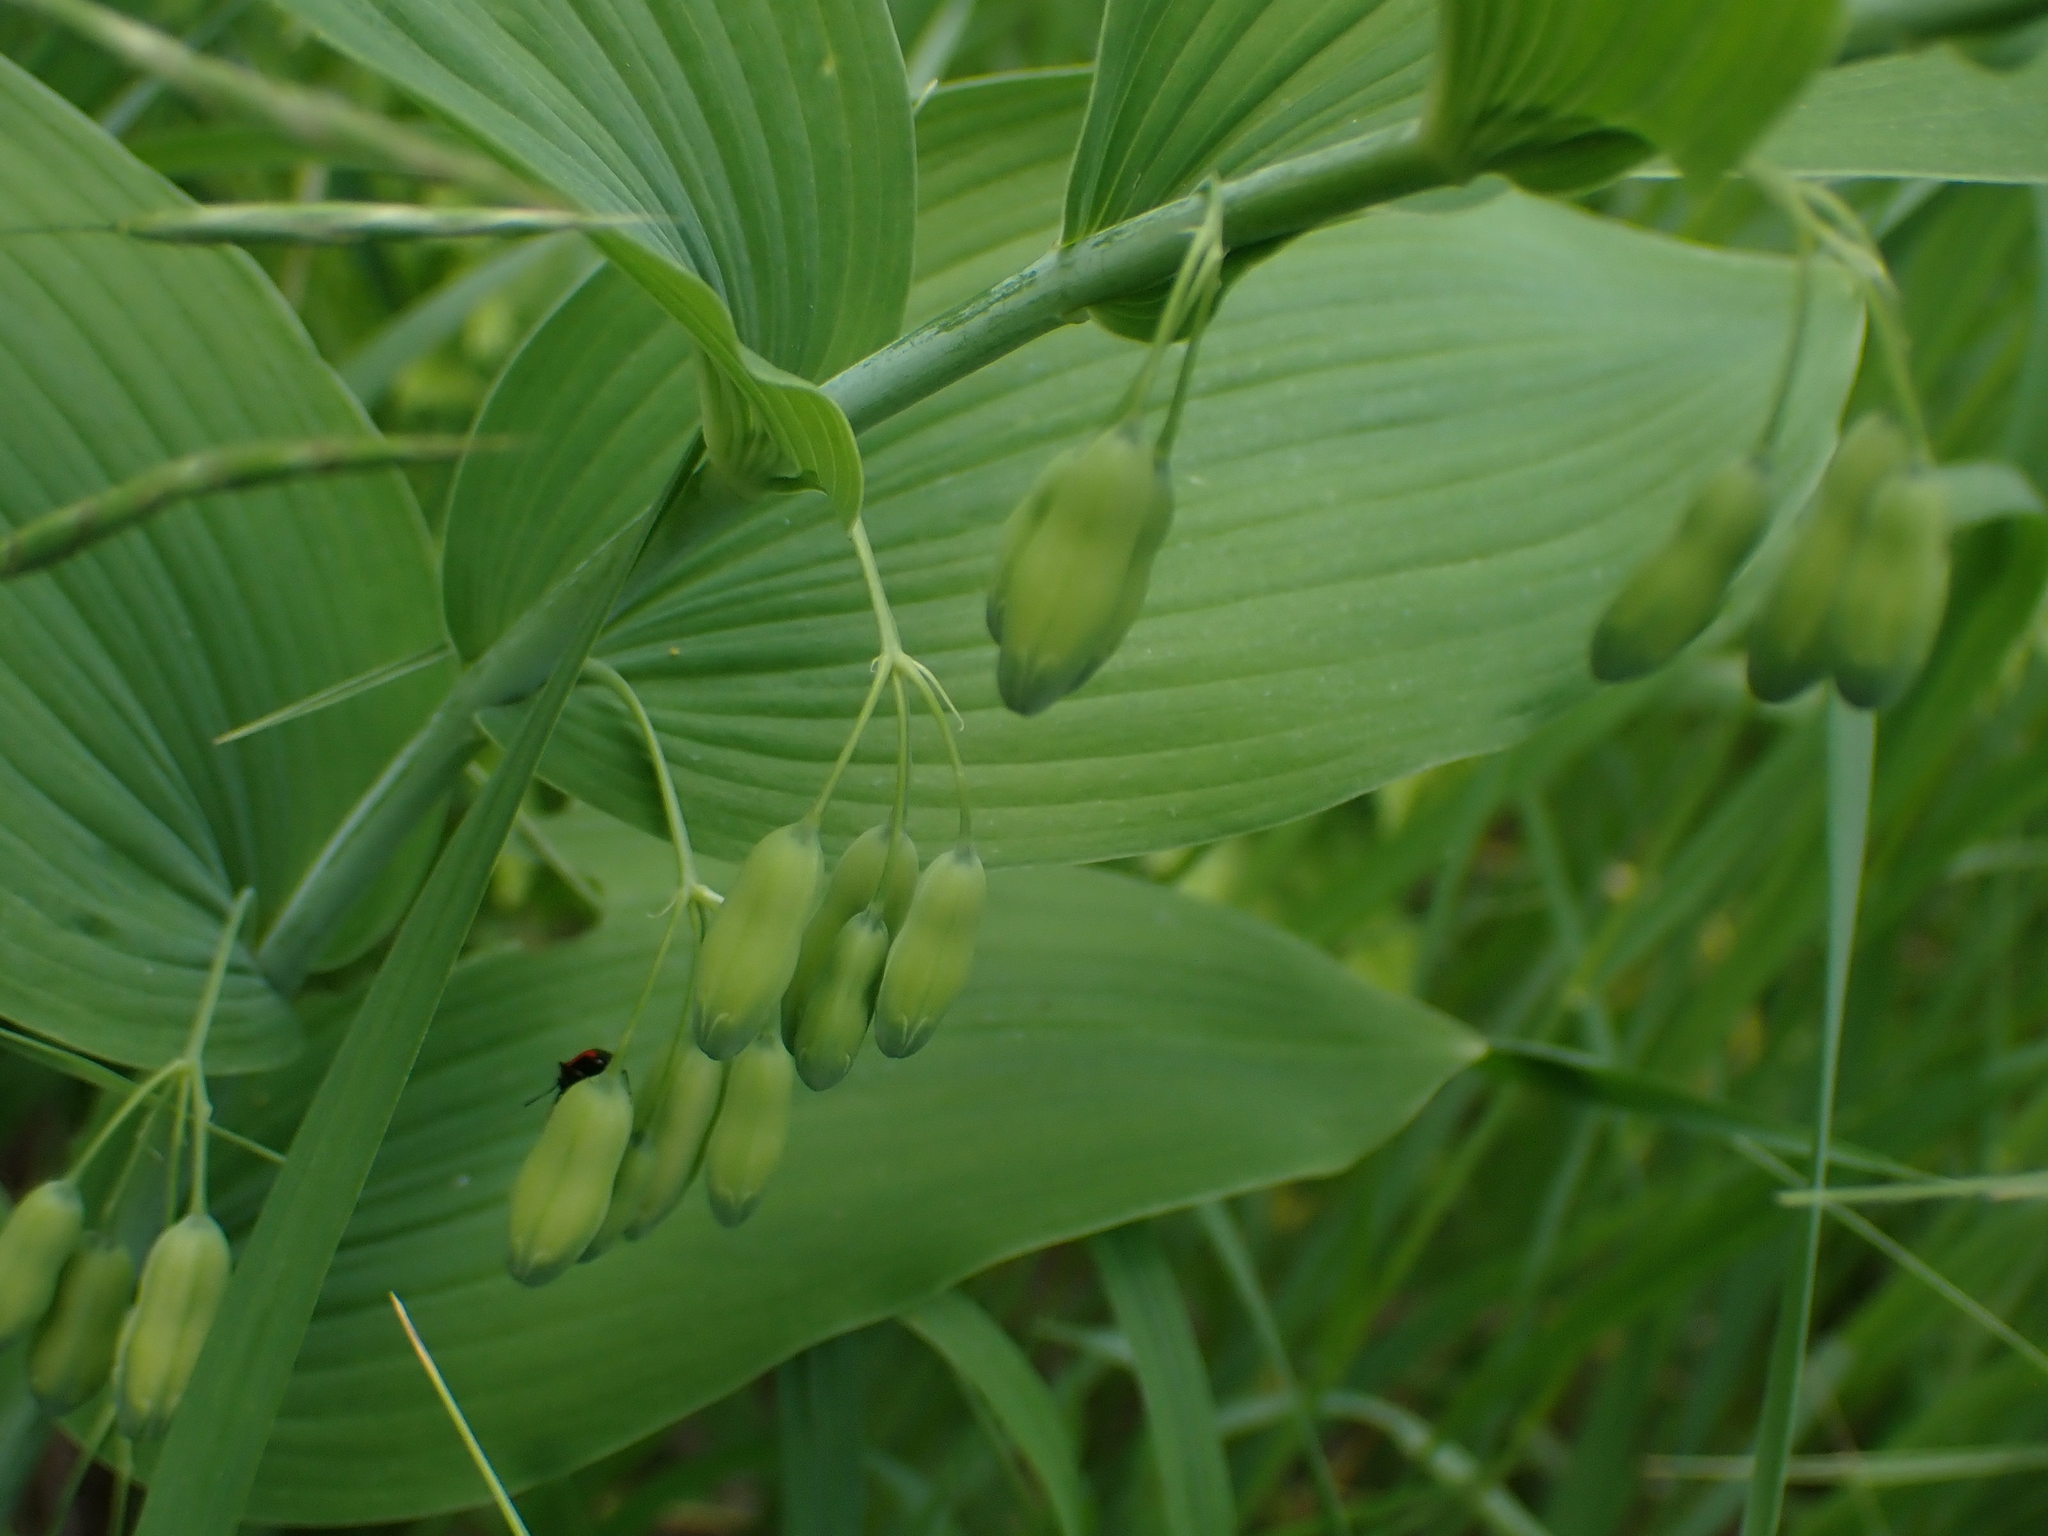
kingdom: Plantae
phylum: Tracheophyta
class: Liliopsida
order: Asparagales
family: Asparagaceae
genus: Polygonatum
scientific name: Polygonatum biflorum
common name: American solomon's-seal
